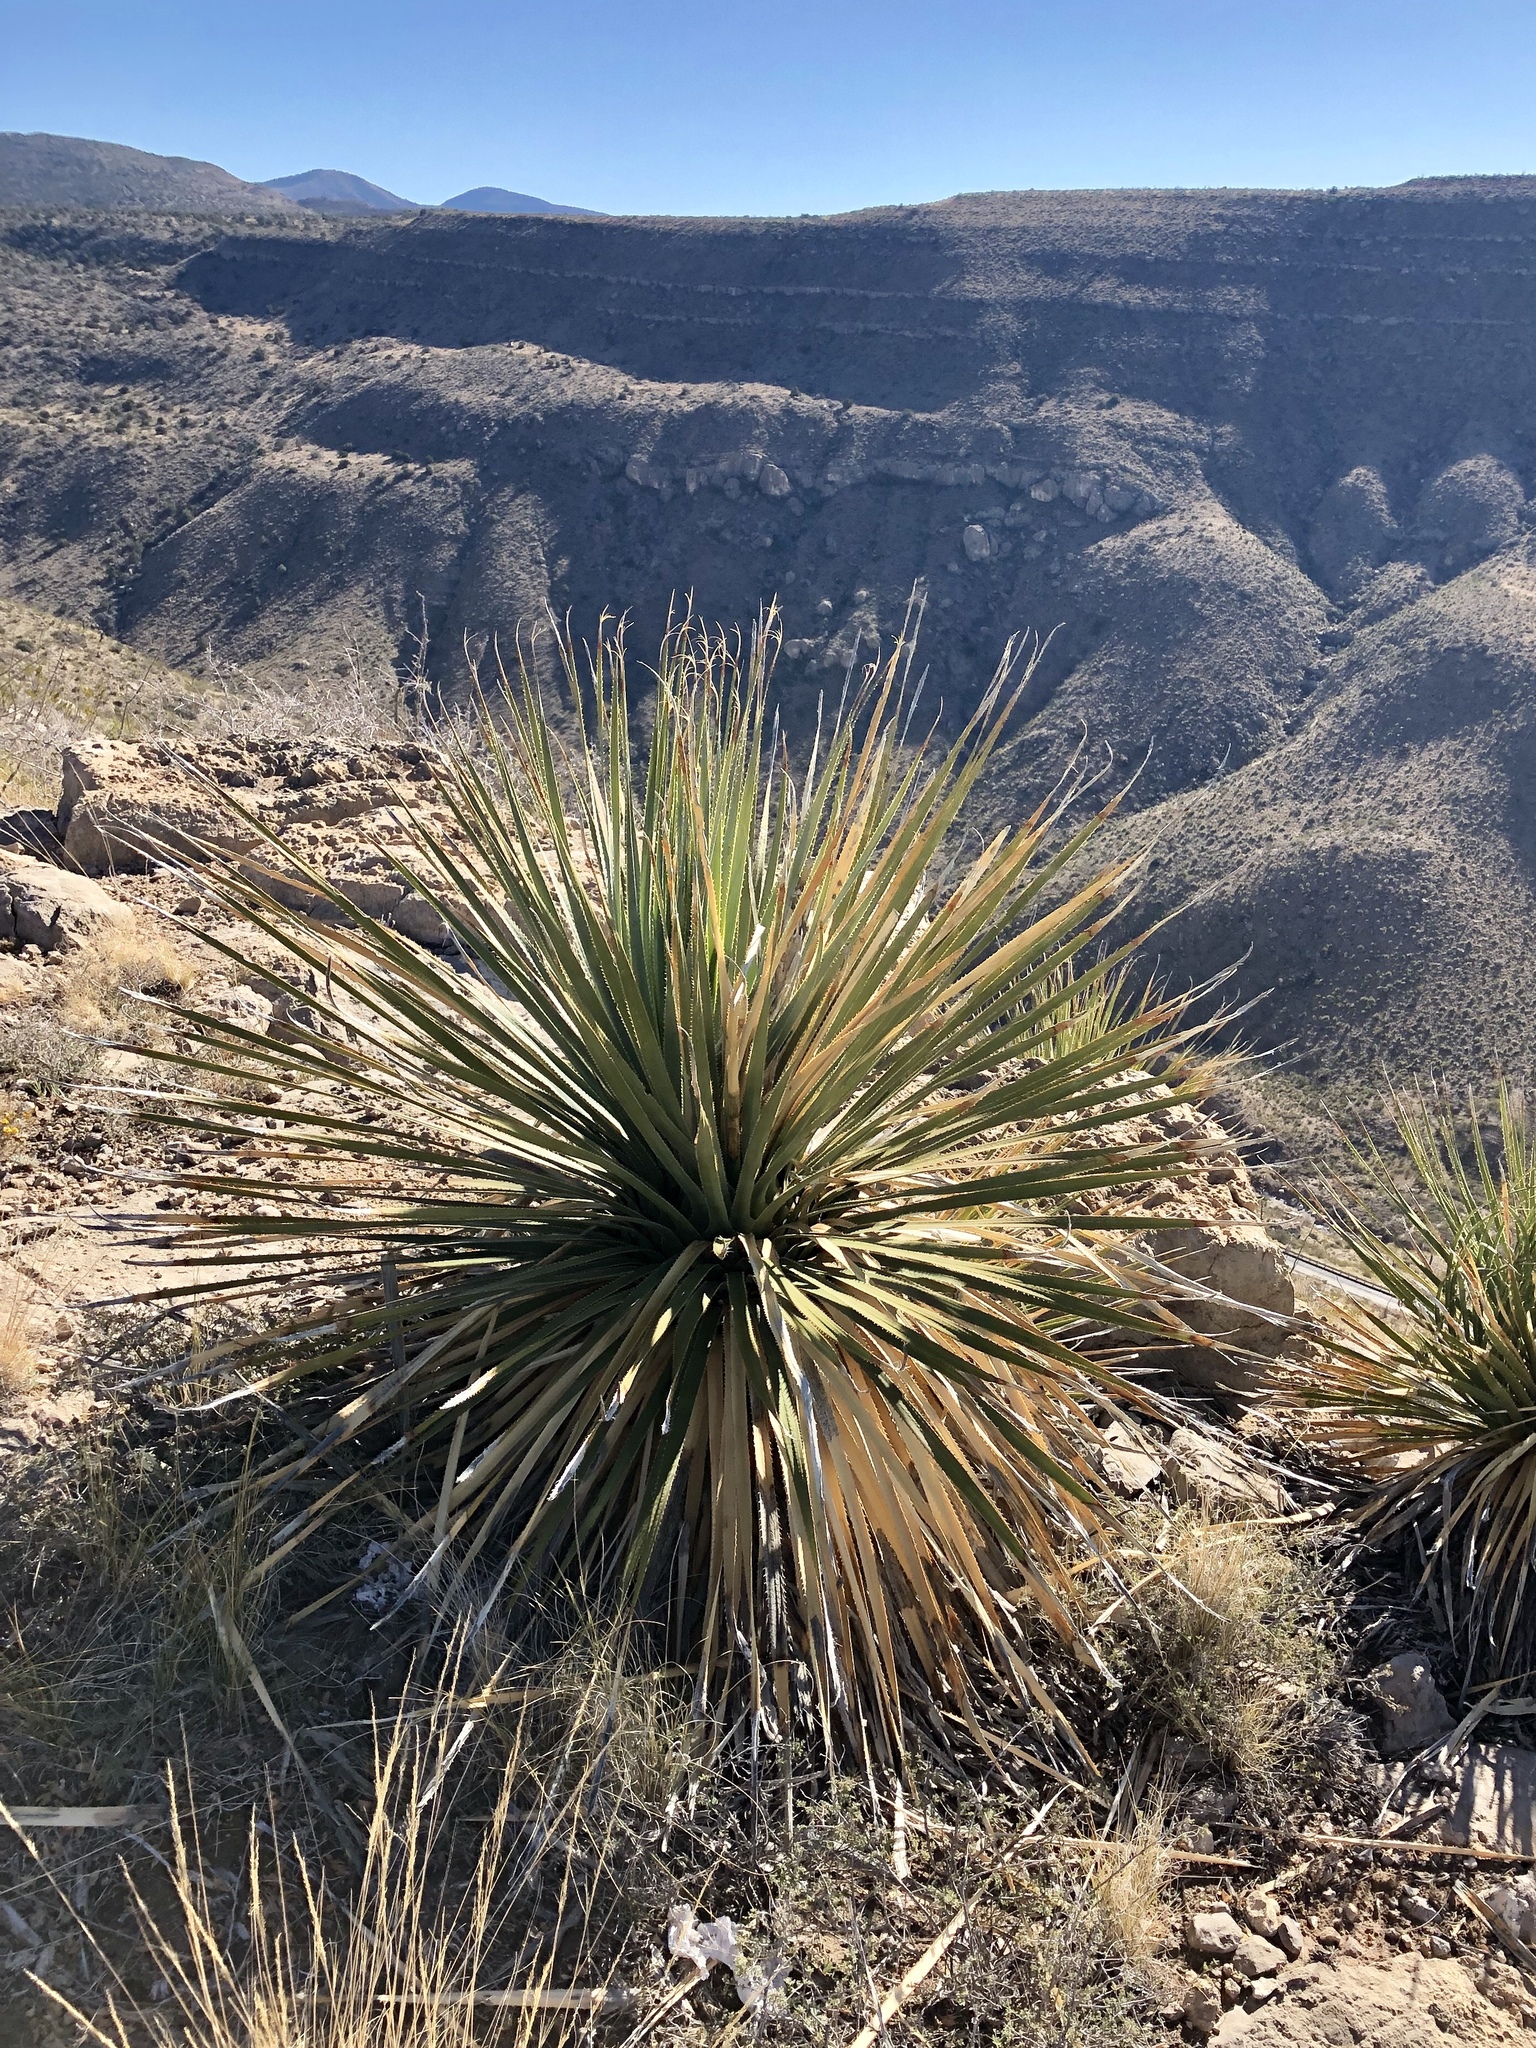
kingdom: Plantae
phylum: Tracheophyta
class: Liliopsida
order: Asparagales
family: Asparagaceae
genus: Dasylirion
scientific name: Dasylirion wheeleri
